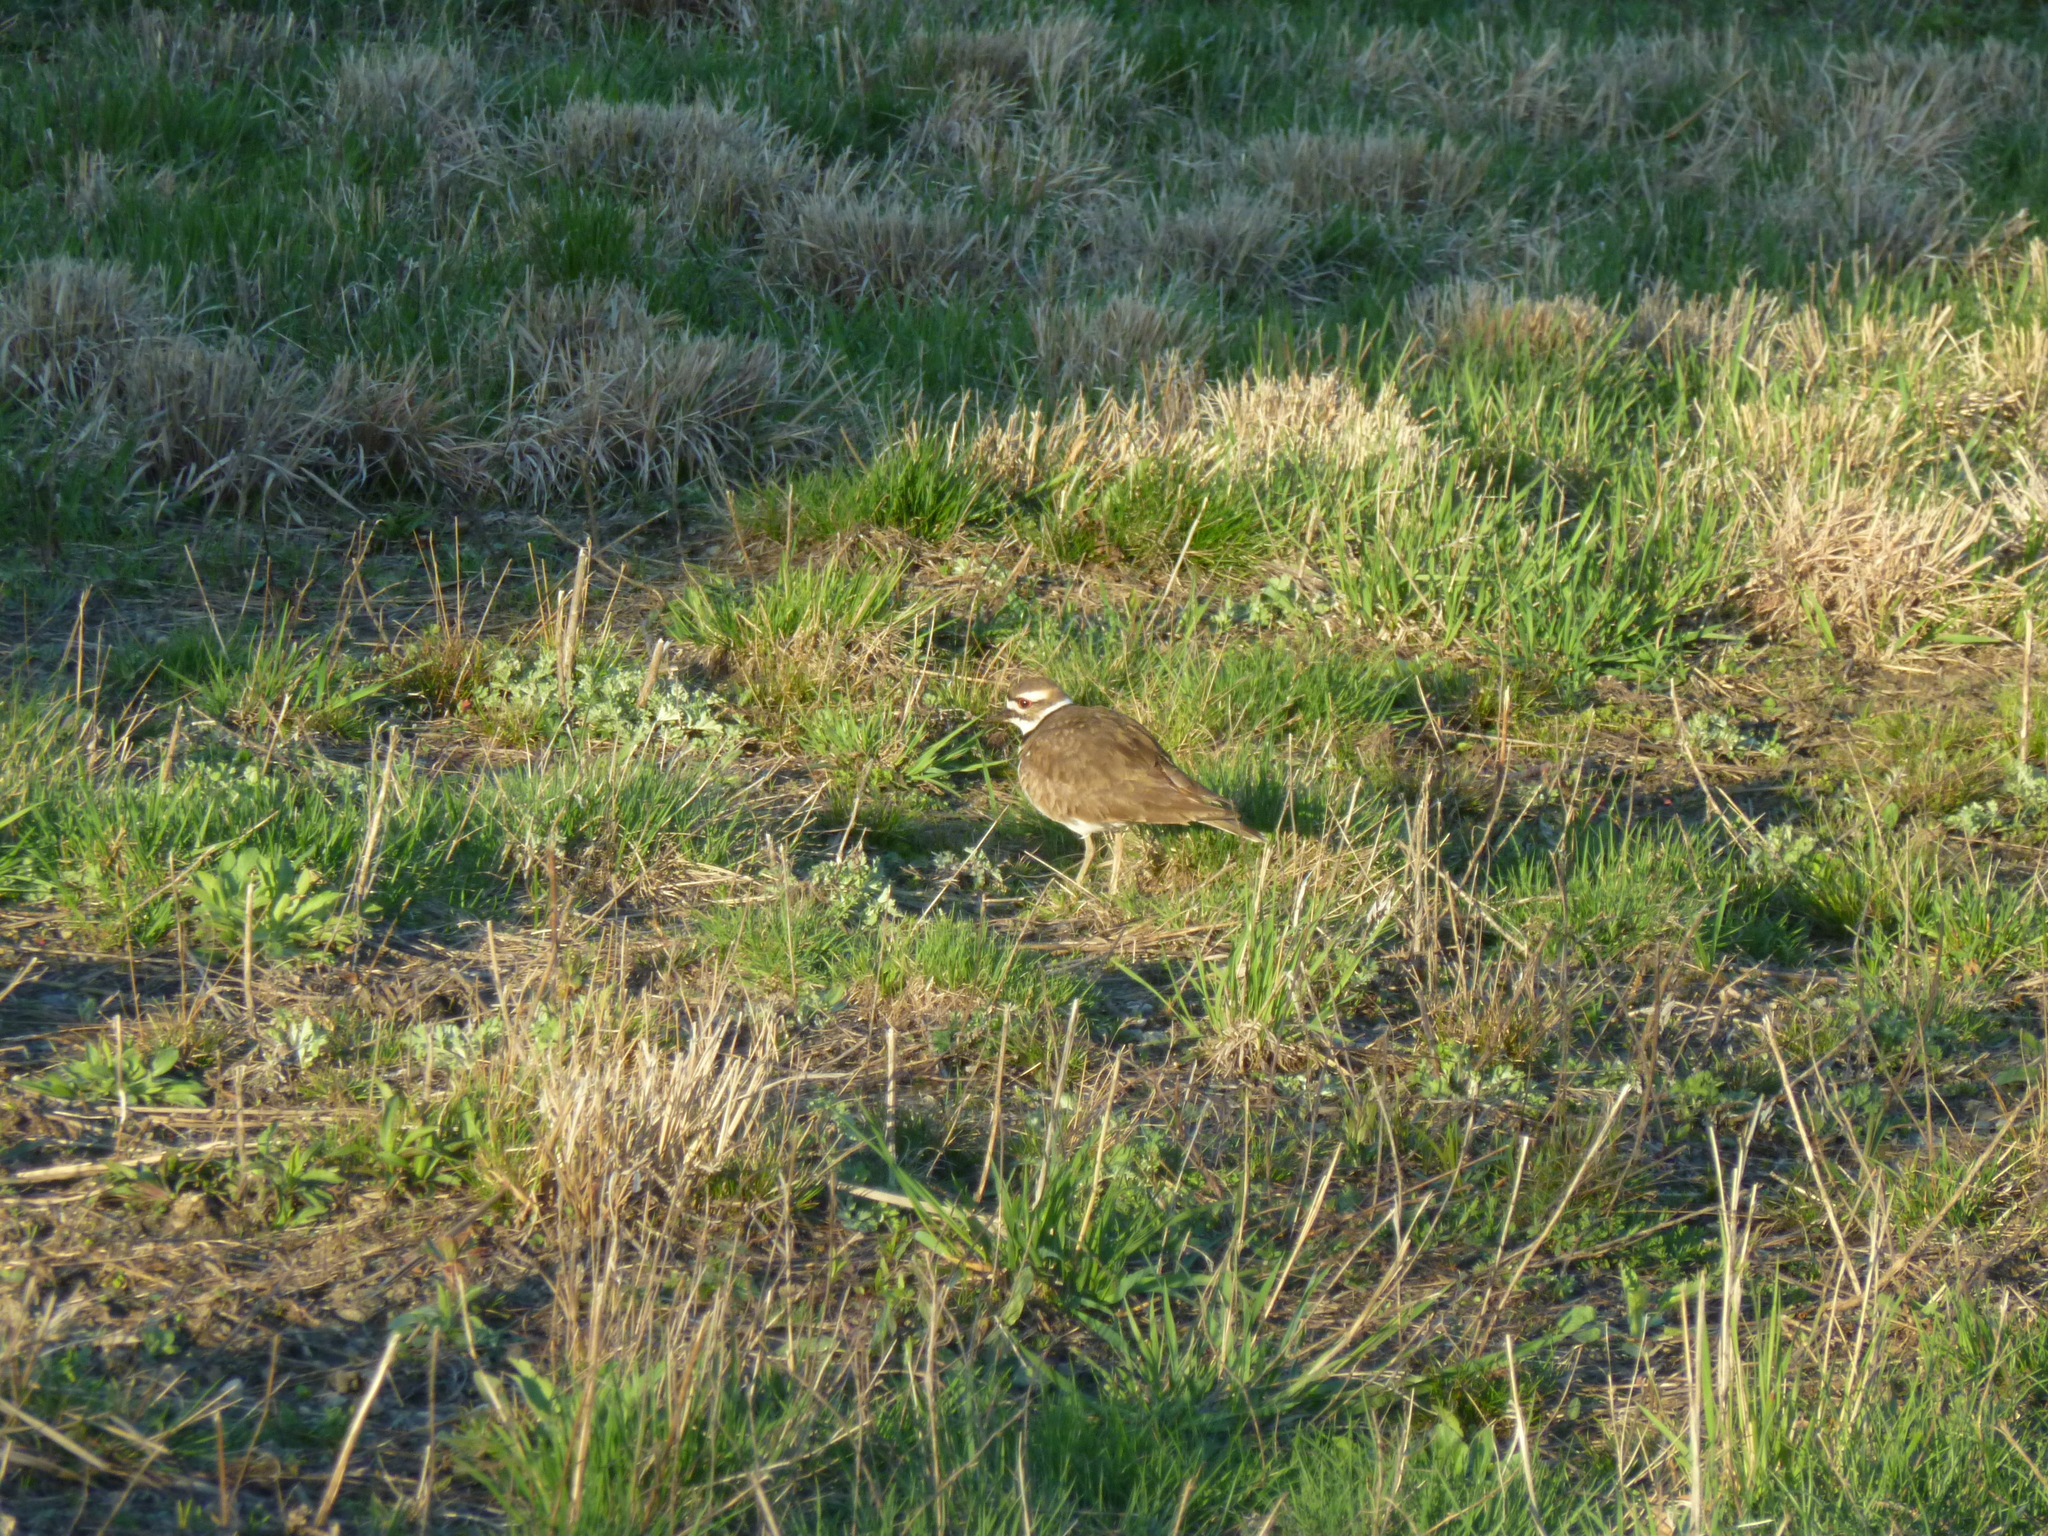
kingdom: Animalia
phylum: Chordata
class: Aves
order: Charadriiformes
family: Charadriidae
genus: Charadrius
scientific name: Charadrius vociferus
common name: Killdeer
